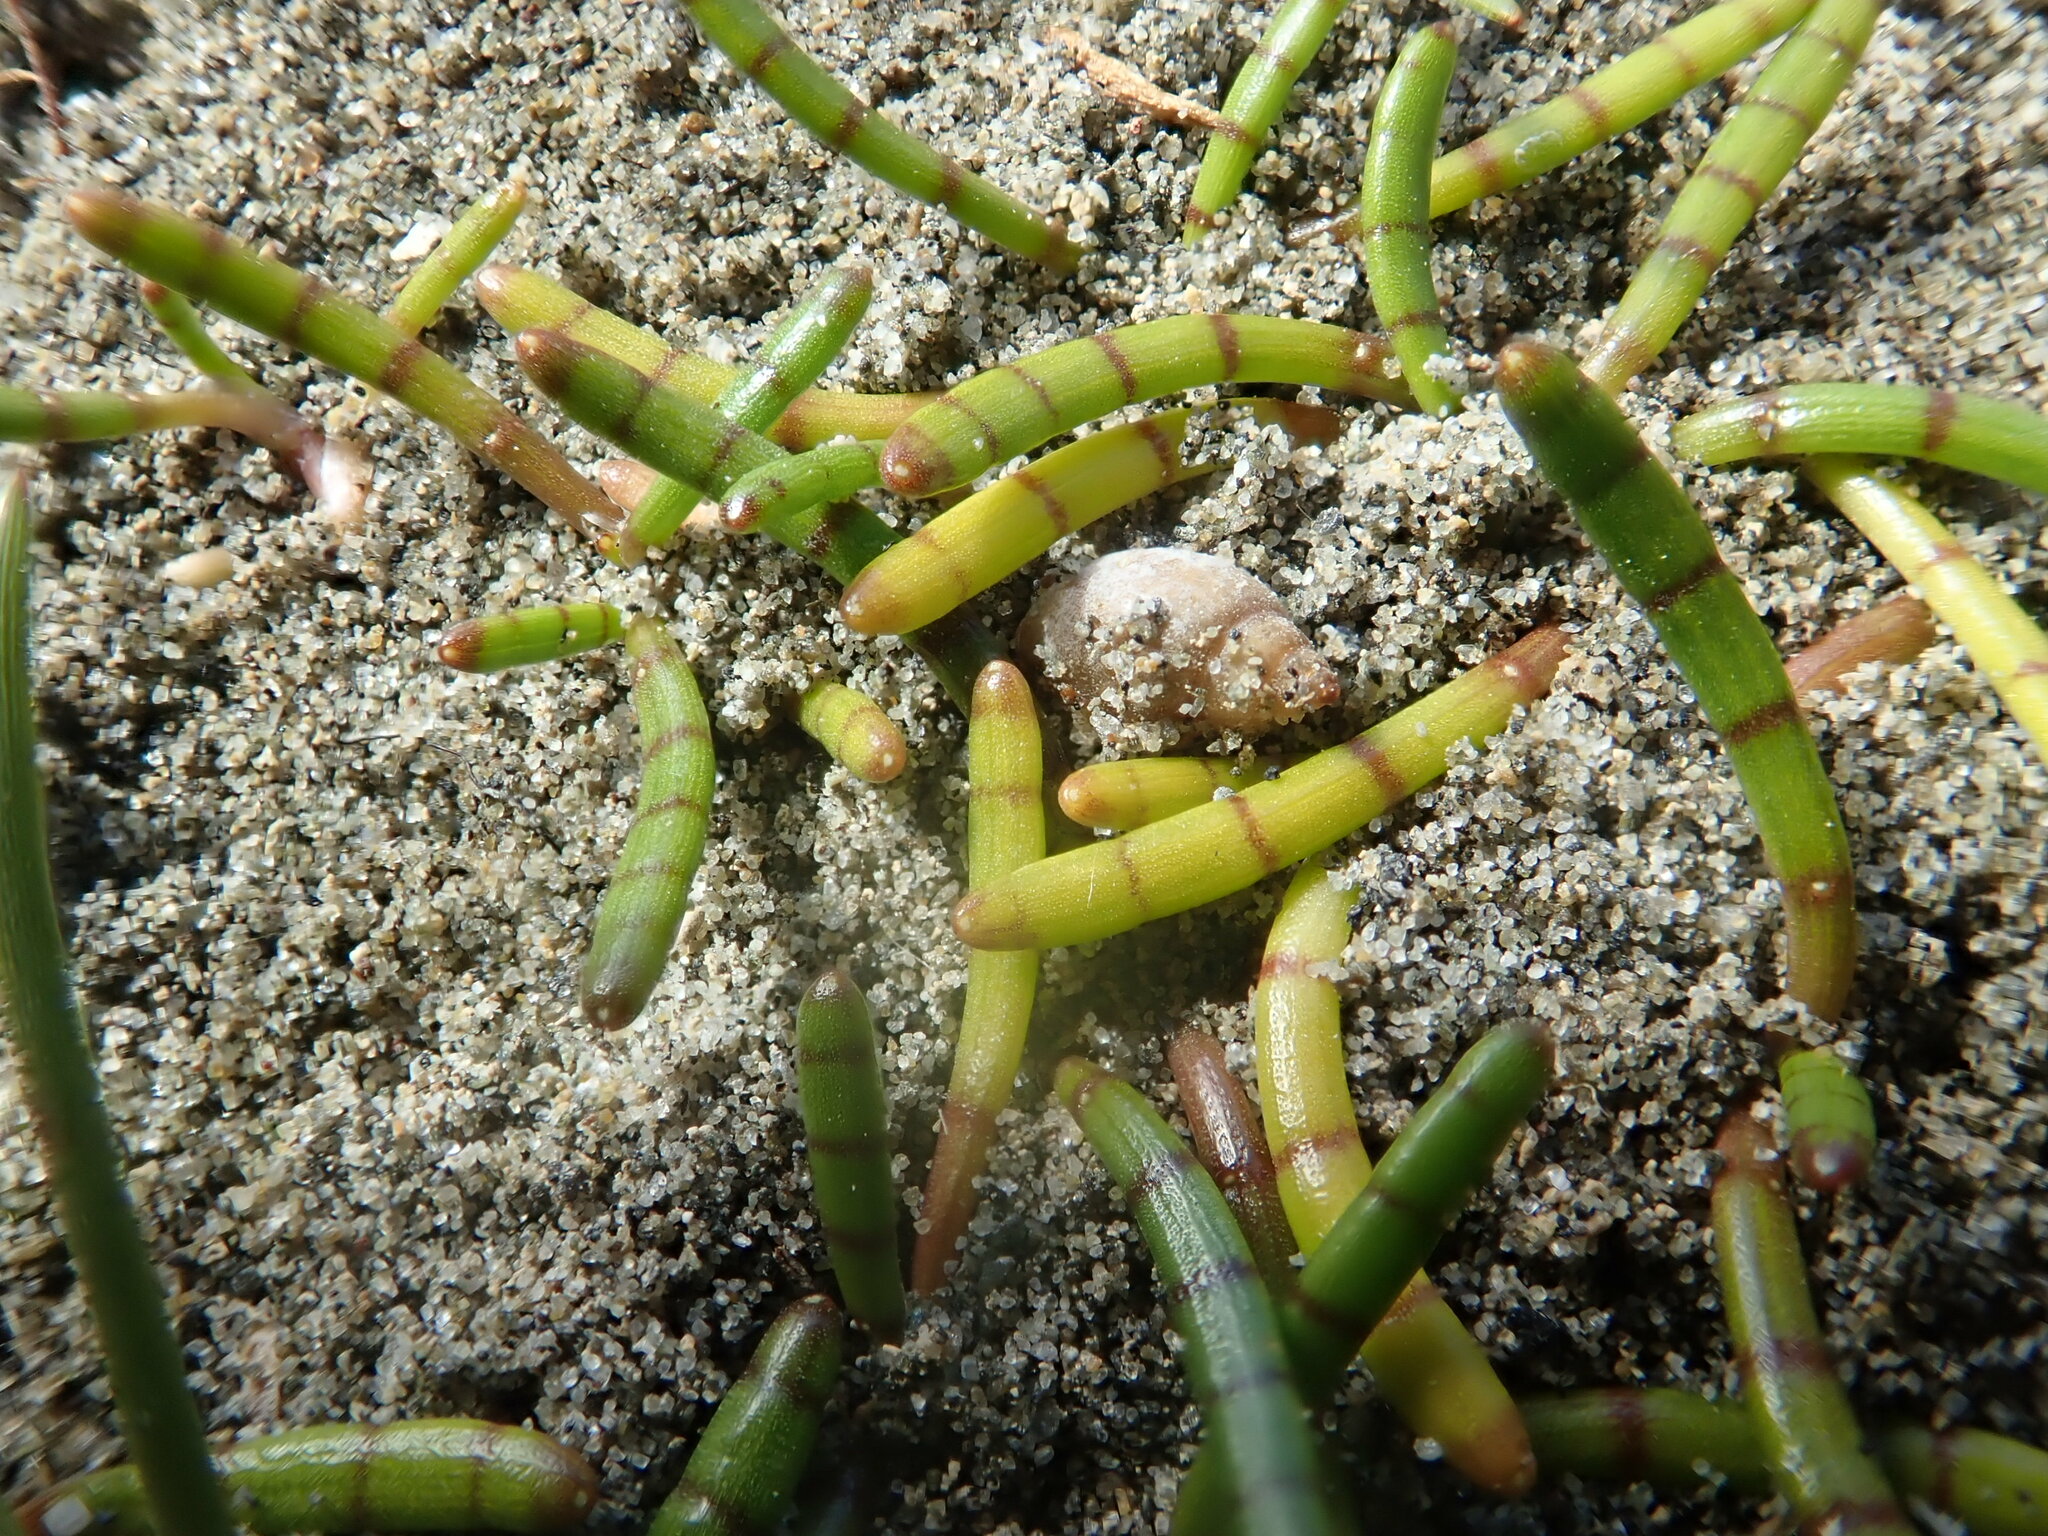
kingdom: Animalia
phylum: Mollusca
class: Gastropoda
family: Physidae
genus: Physella
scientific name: Physella acuta
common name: European physa
